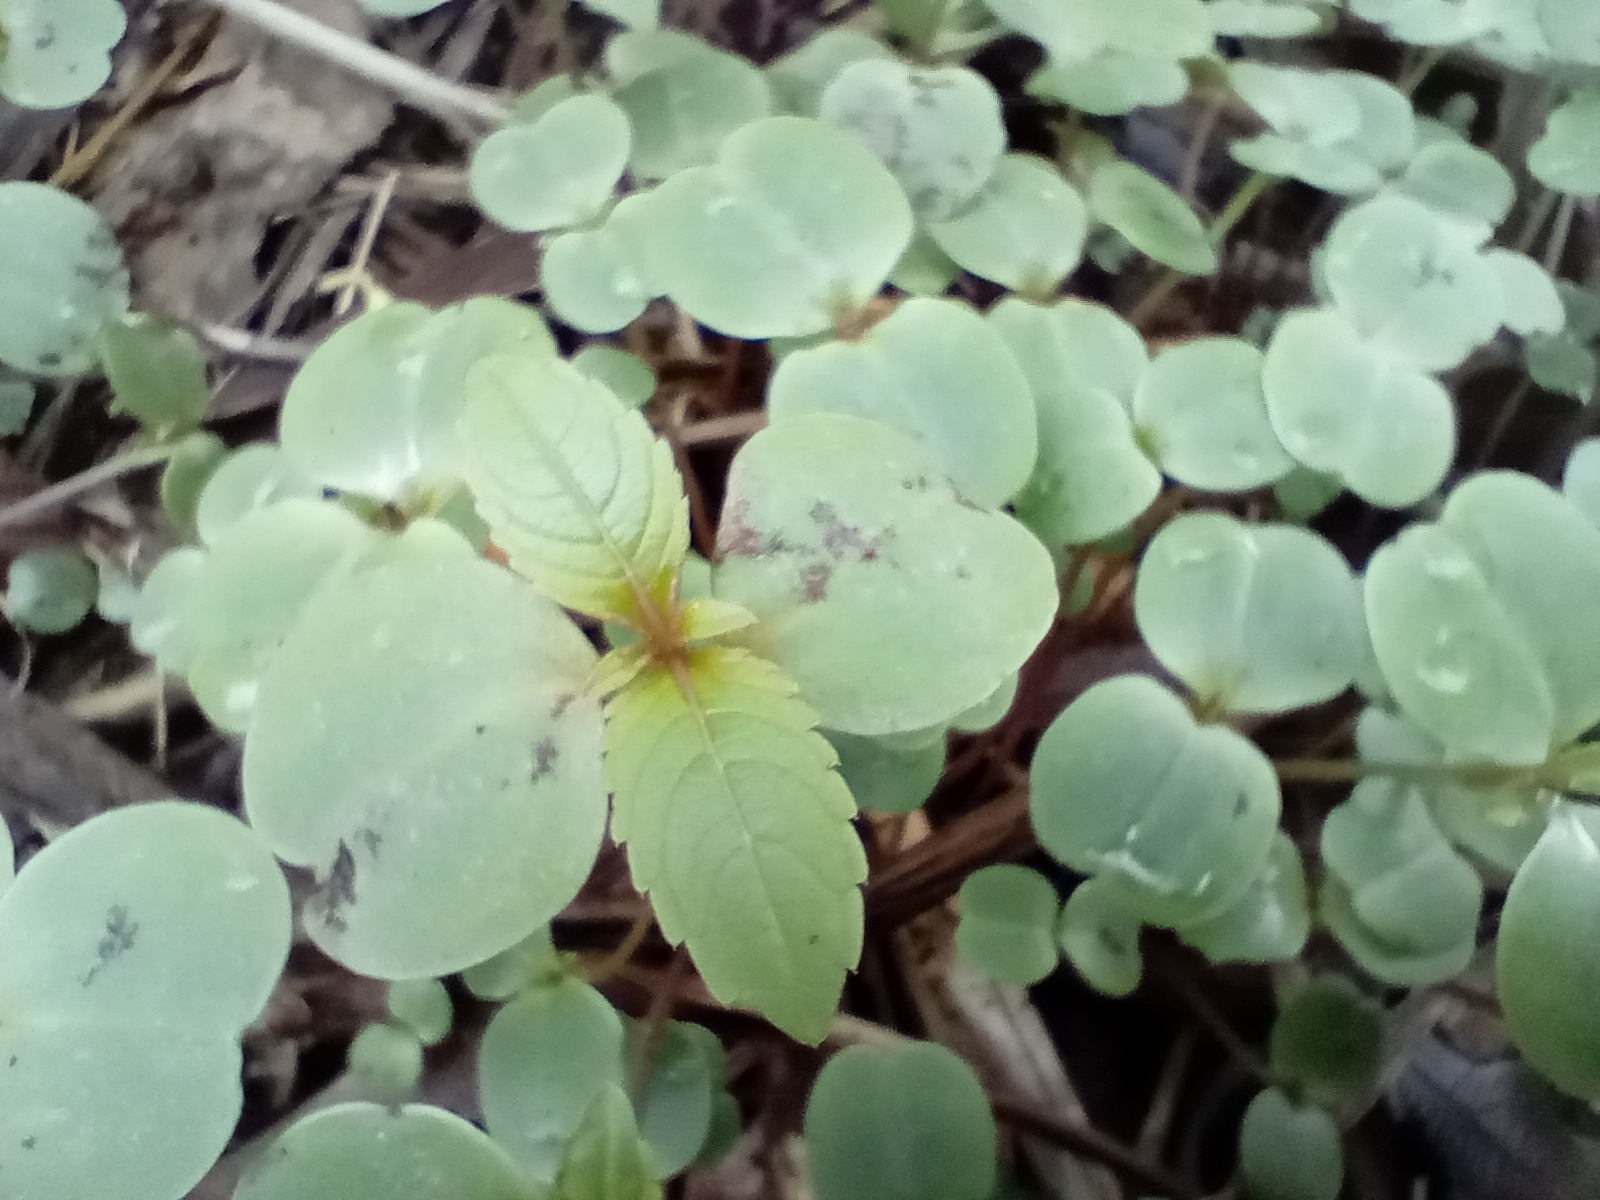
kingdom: Plantae
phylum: Tracheophyta
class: Magnoliopsida
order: Ericales
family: Balsaminaceae
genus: Impatiens
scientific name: Impatiens glandulifera
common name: Himalayan balsam
